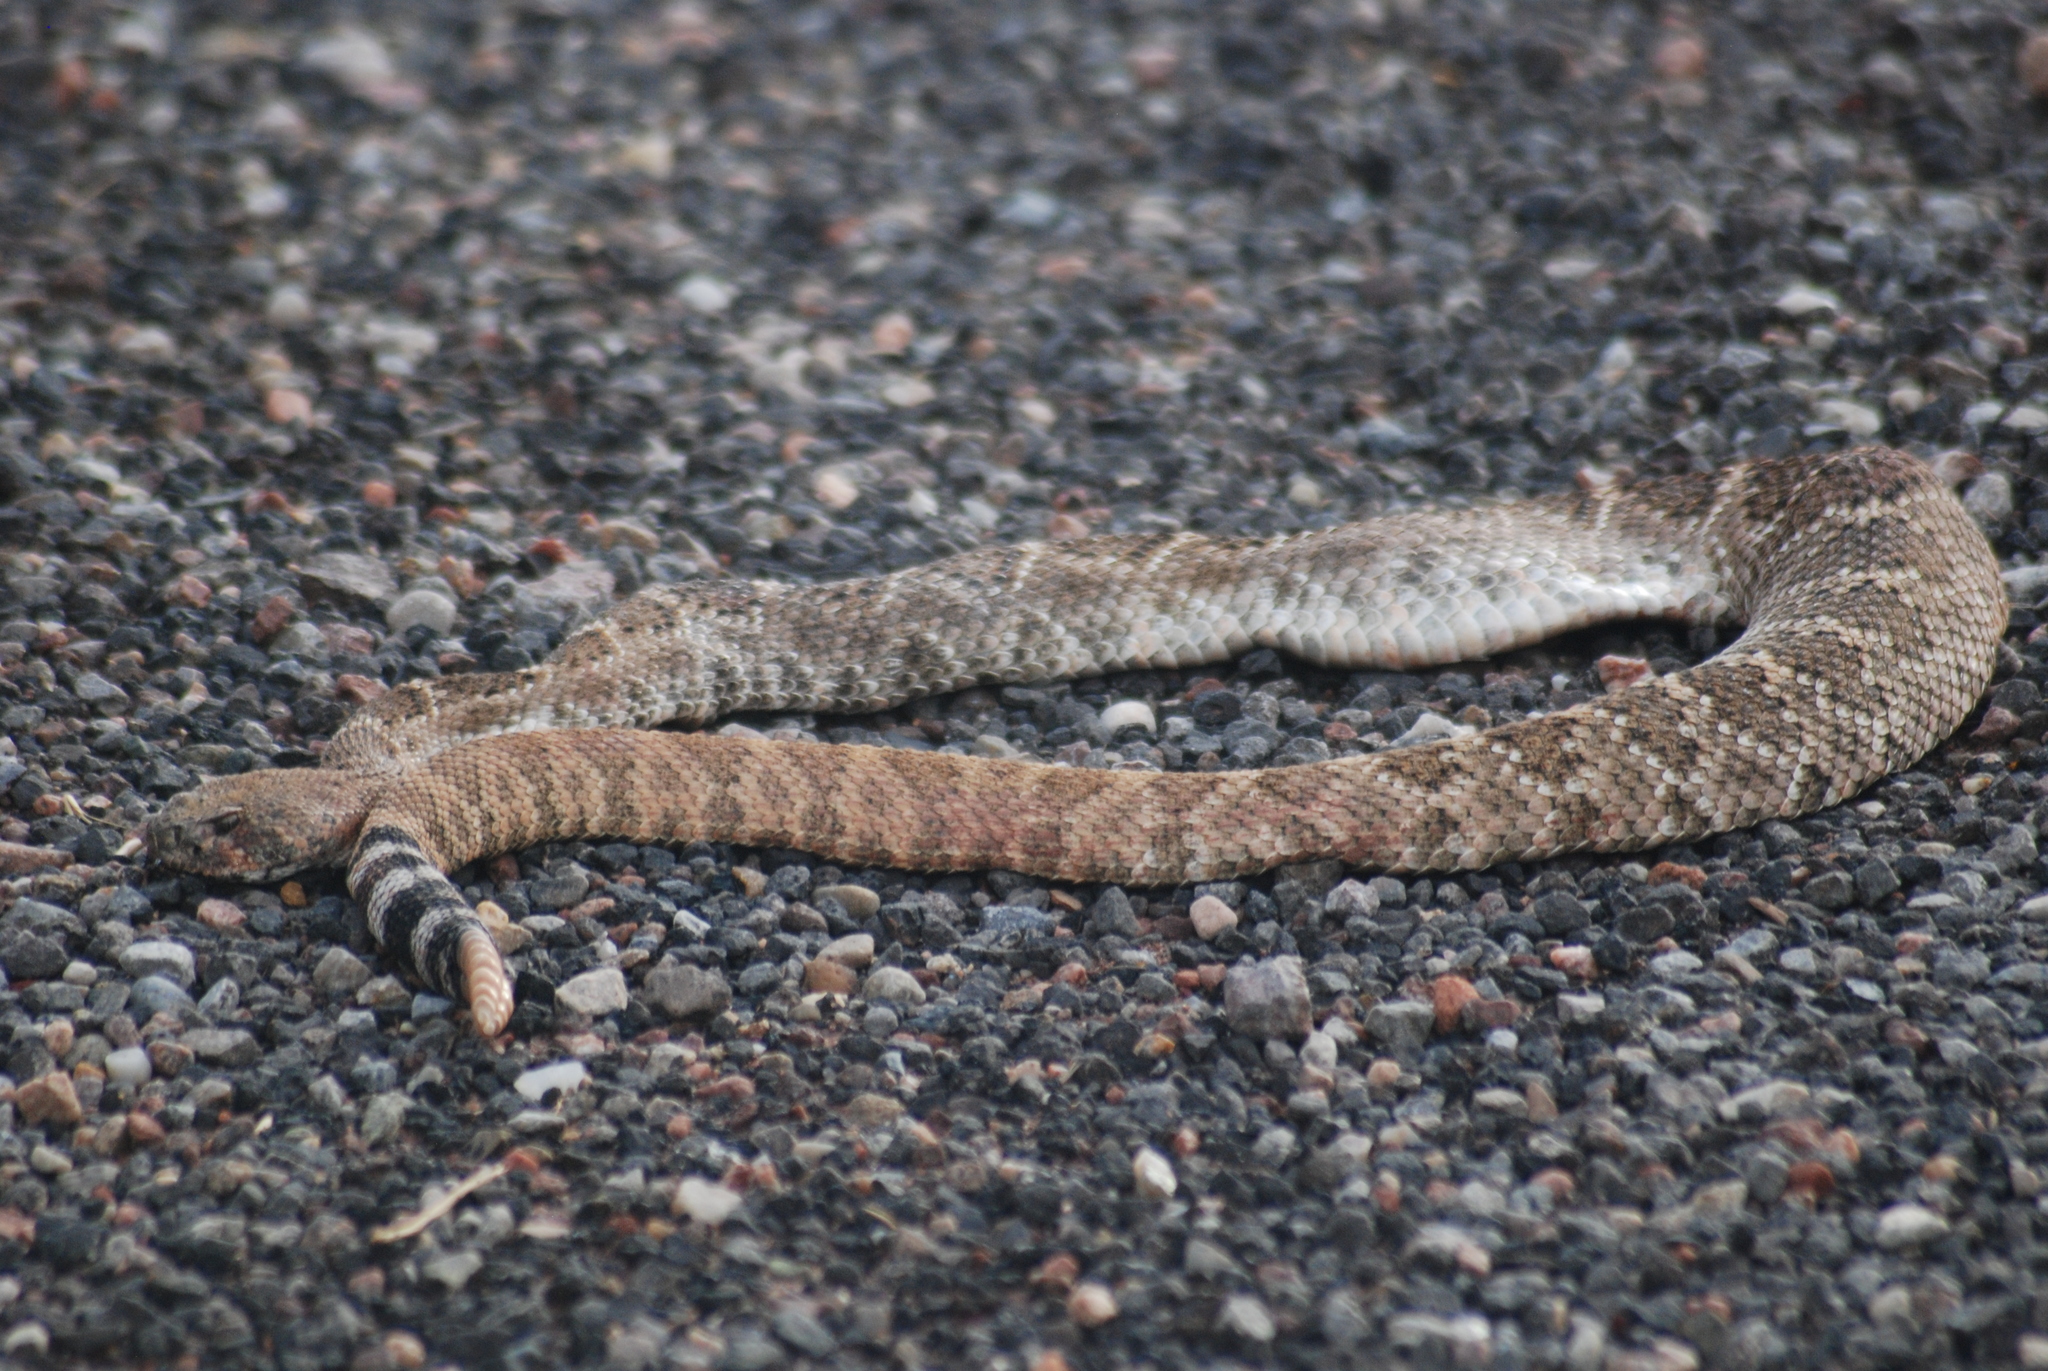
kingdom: Animalia
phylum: Chordata
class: Squamata
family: Viperidae
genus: Crotalus
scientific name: Crotalus atrox
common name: Western diamond-backed rattlesnake
